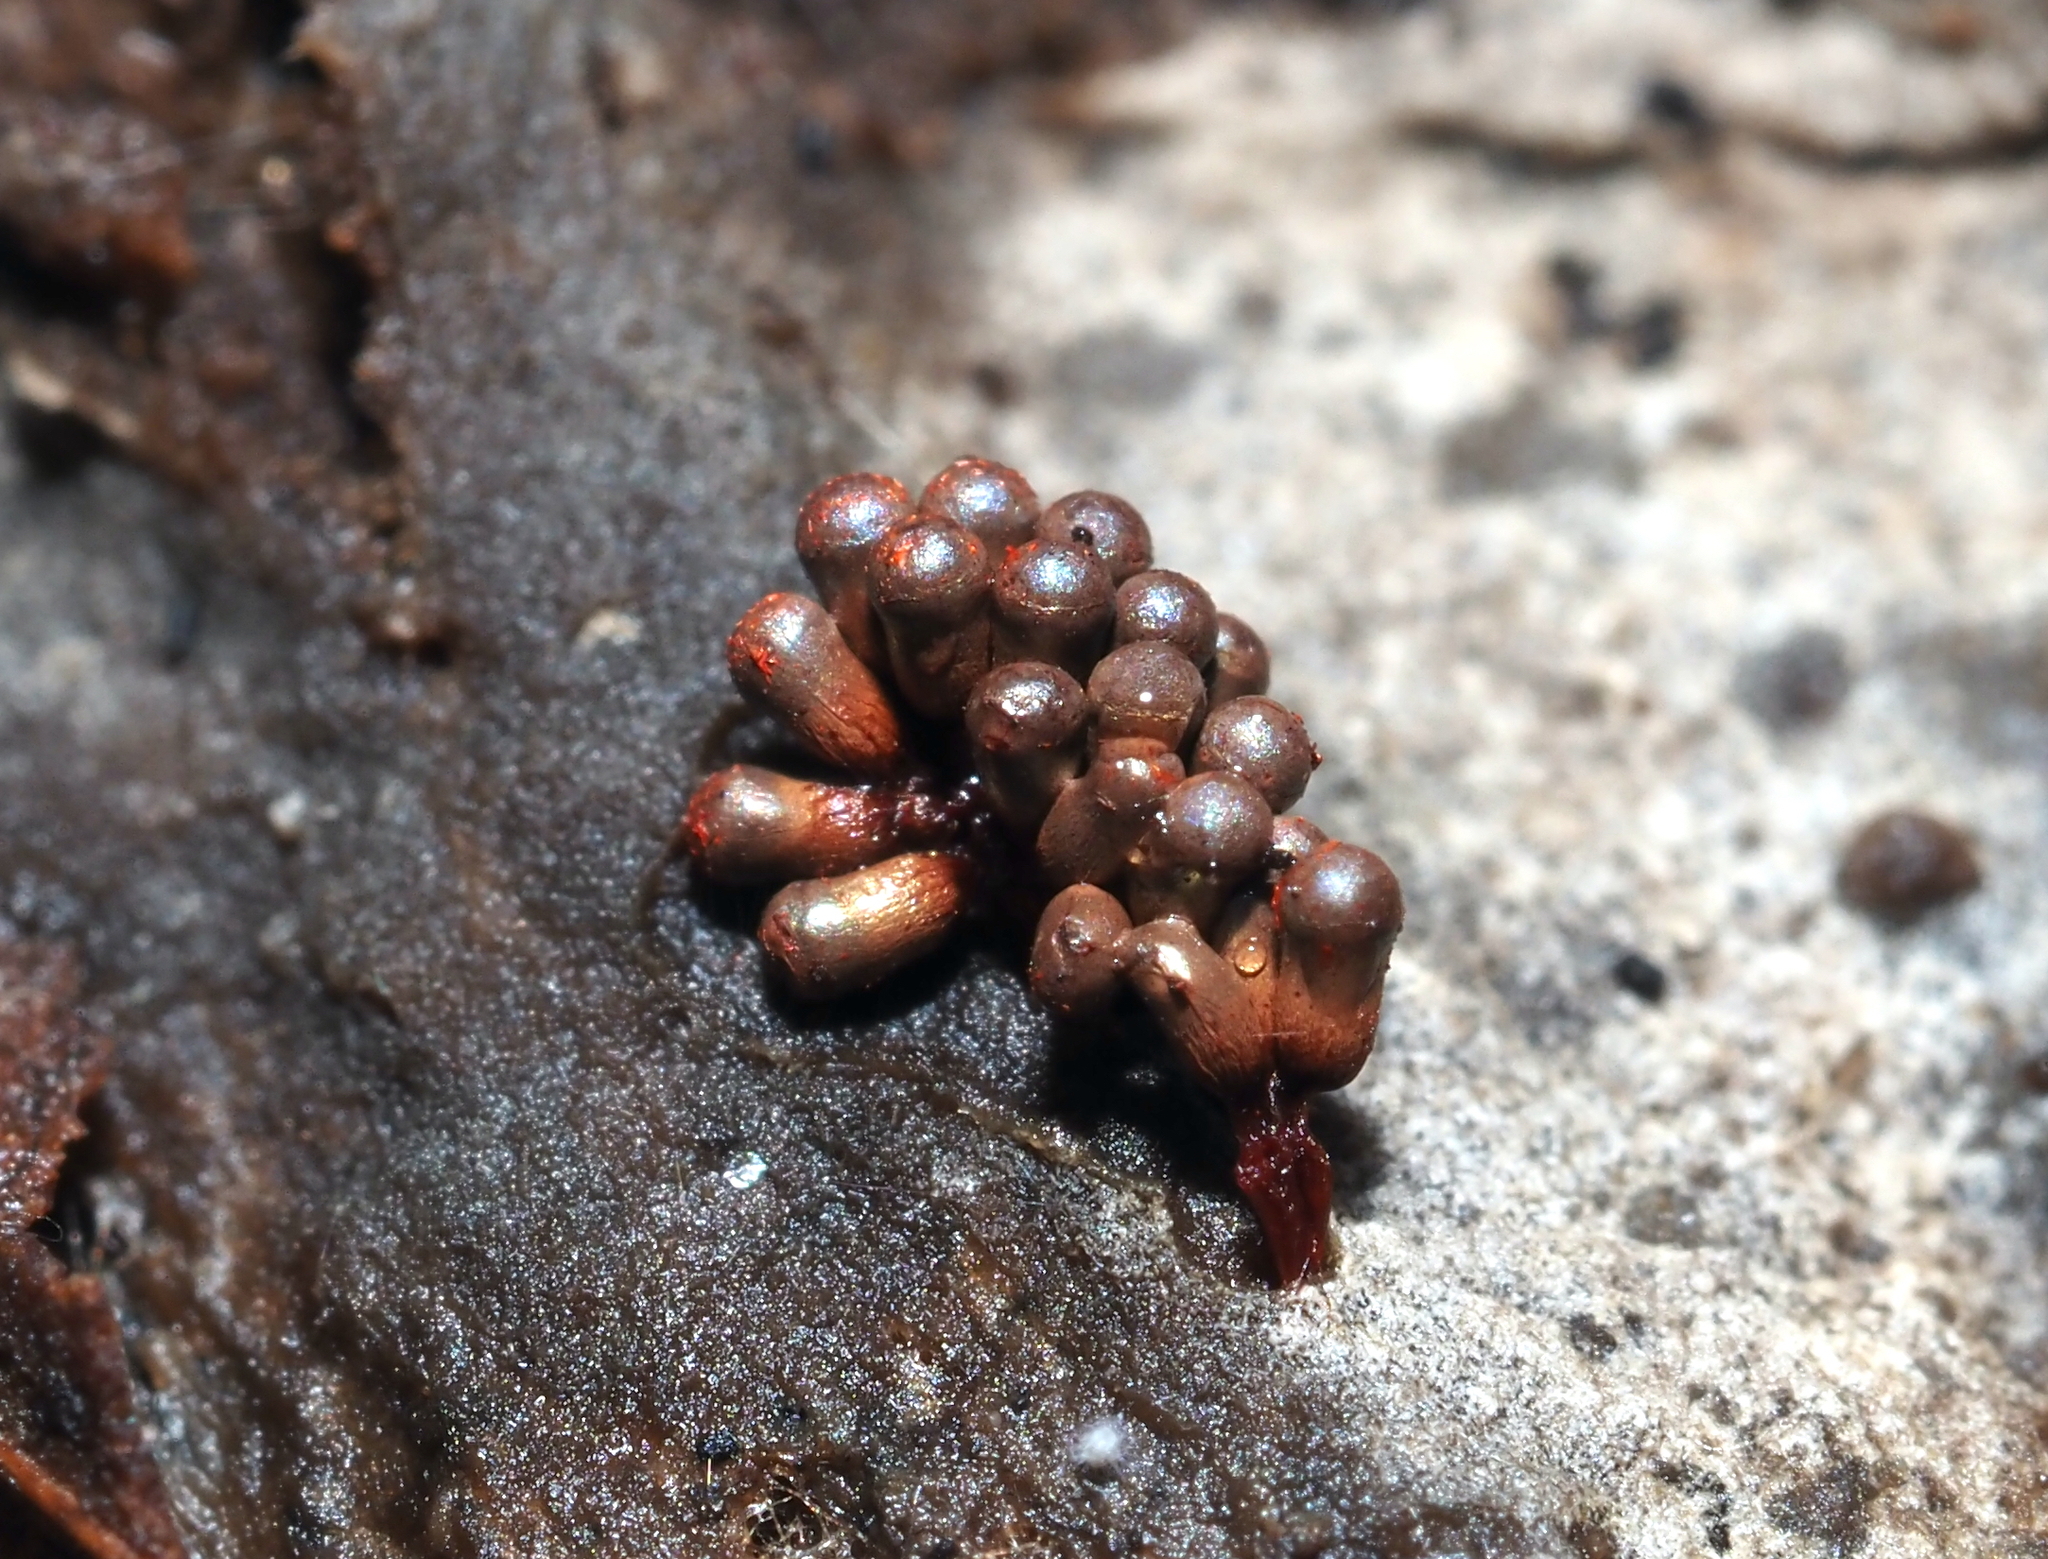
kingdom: Protozoa
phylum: Mycetozoa
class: Myxomycetes
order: Trichiales
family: Trichiaceae
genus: Metatrichia
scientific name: Metatrichia vesparia
